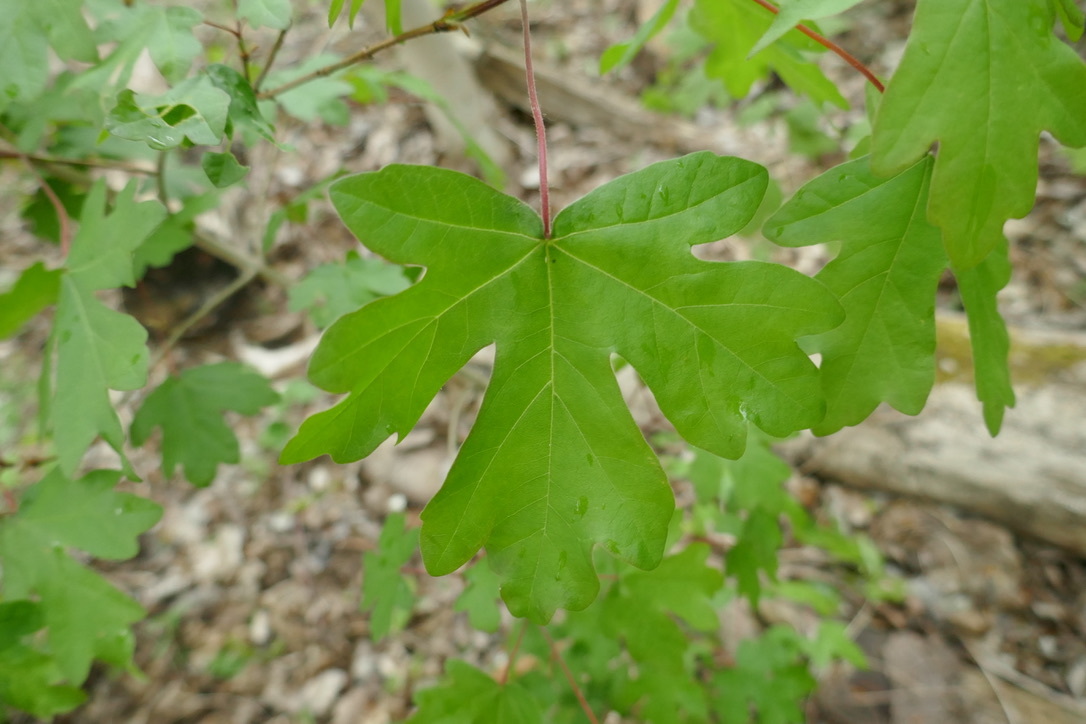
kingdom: Plantae
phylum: Tracheophyta
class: Magnoliopsida
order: Sapindales
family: Sapindaceae
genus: Acer
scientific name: Acer campestre
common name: Field maple
